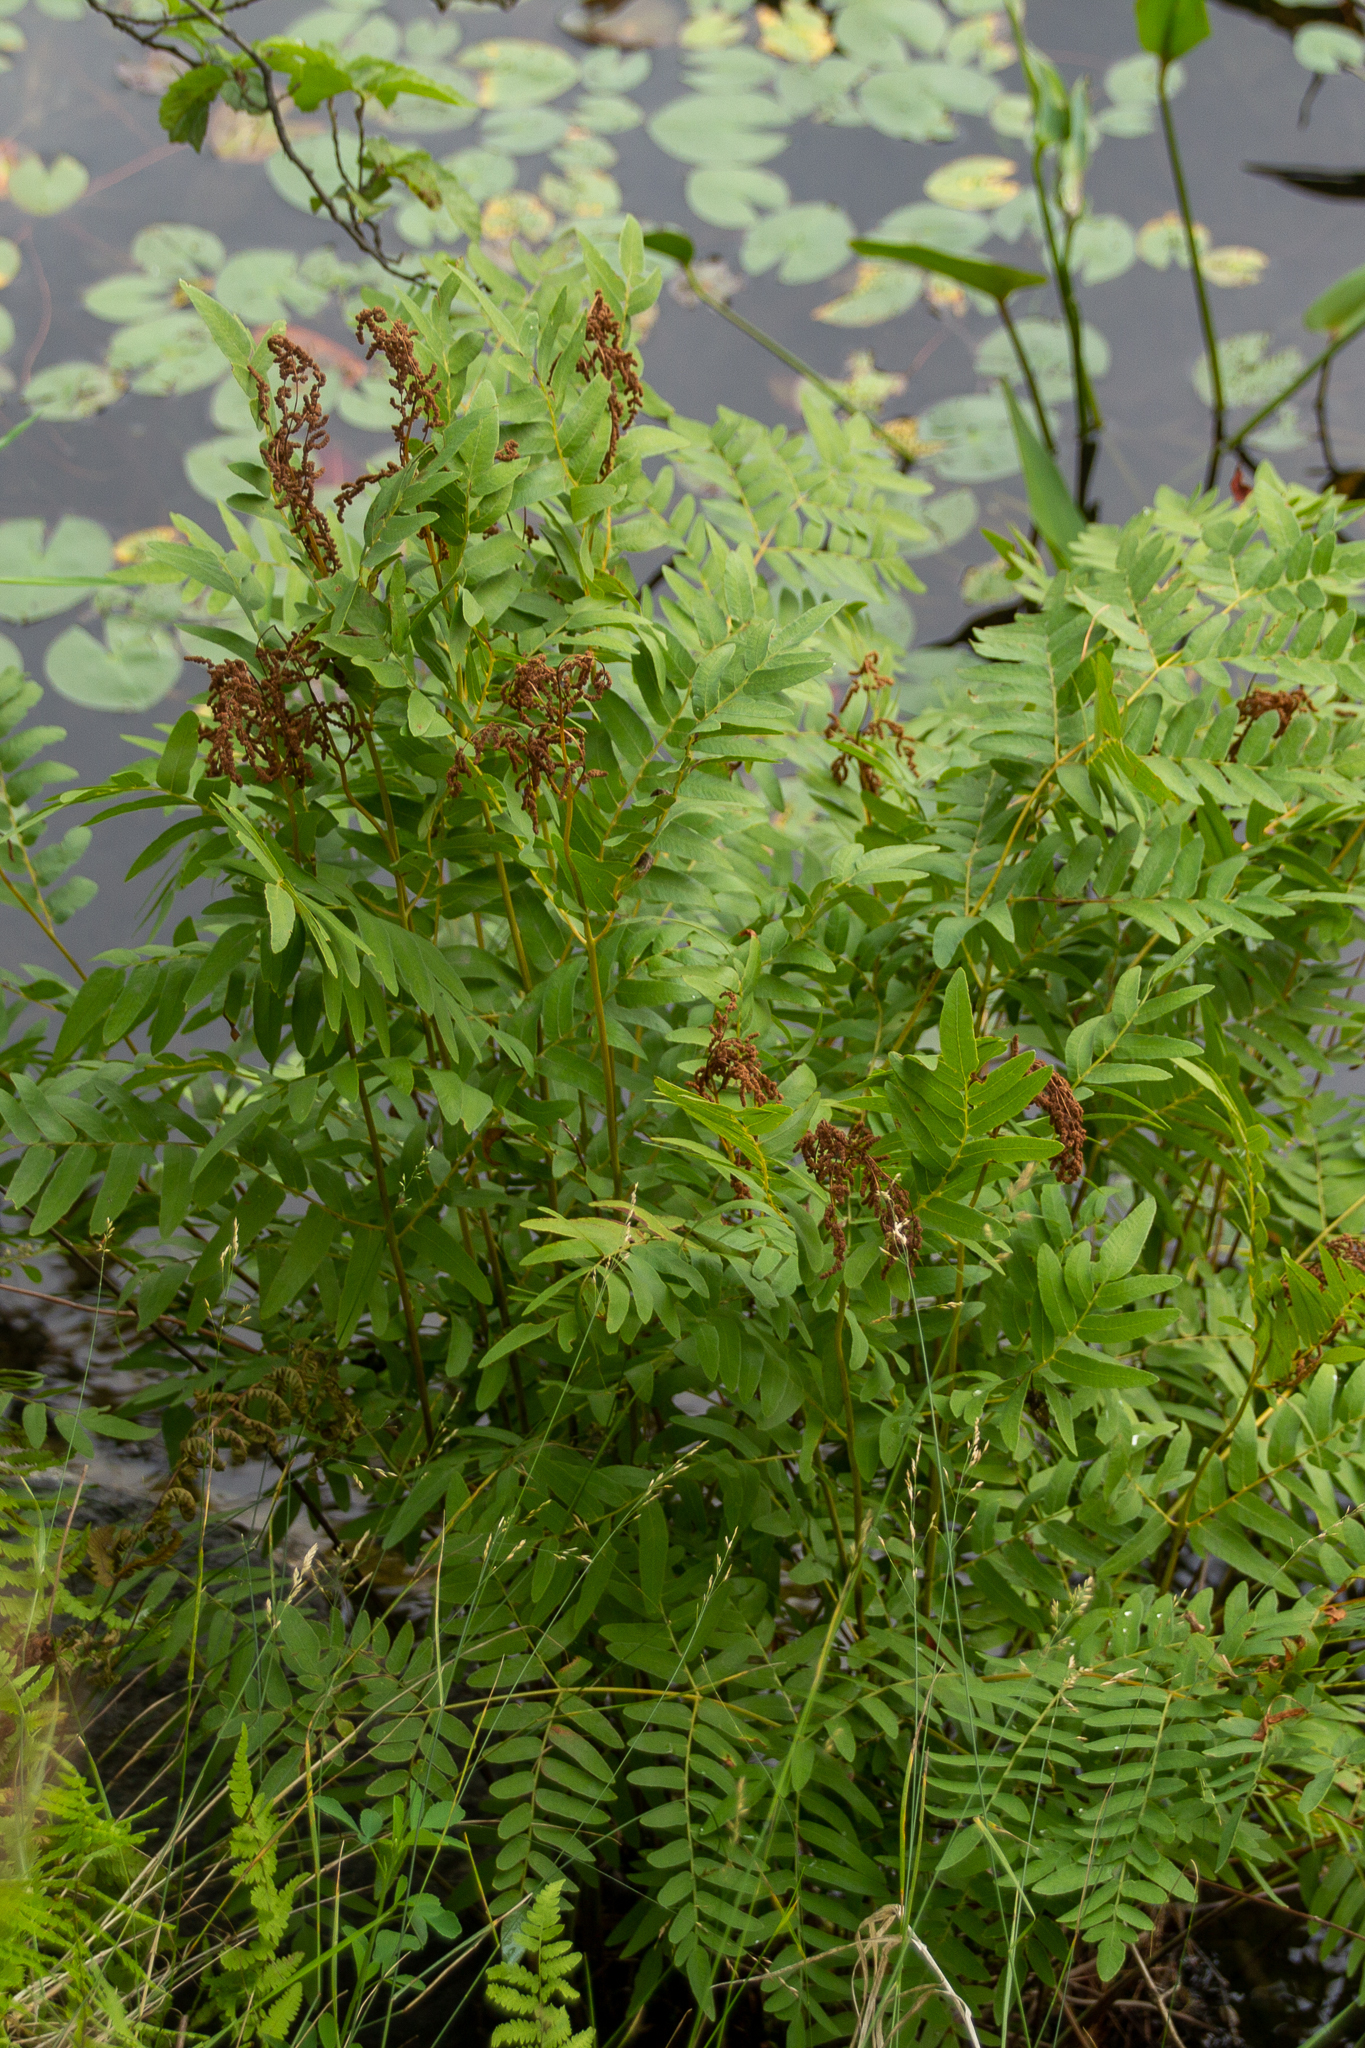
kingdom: Plantae
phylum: Tracheophyta
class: Polypodiopsida
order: Osmundales
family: Osmundaceae
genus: Osmunda
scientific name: Osmunda spectabilis
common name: American royal fern
